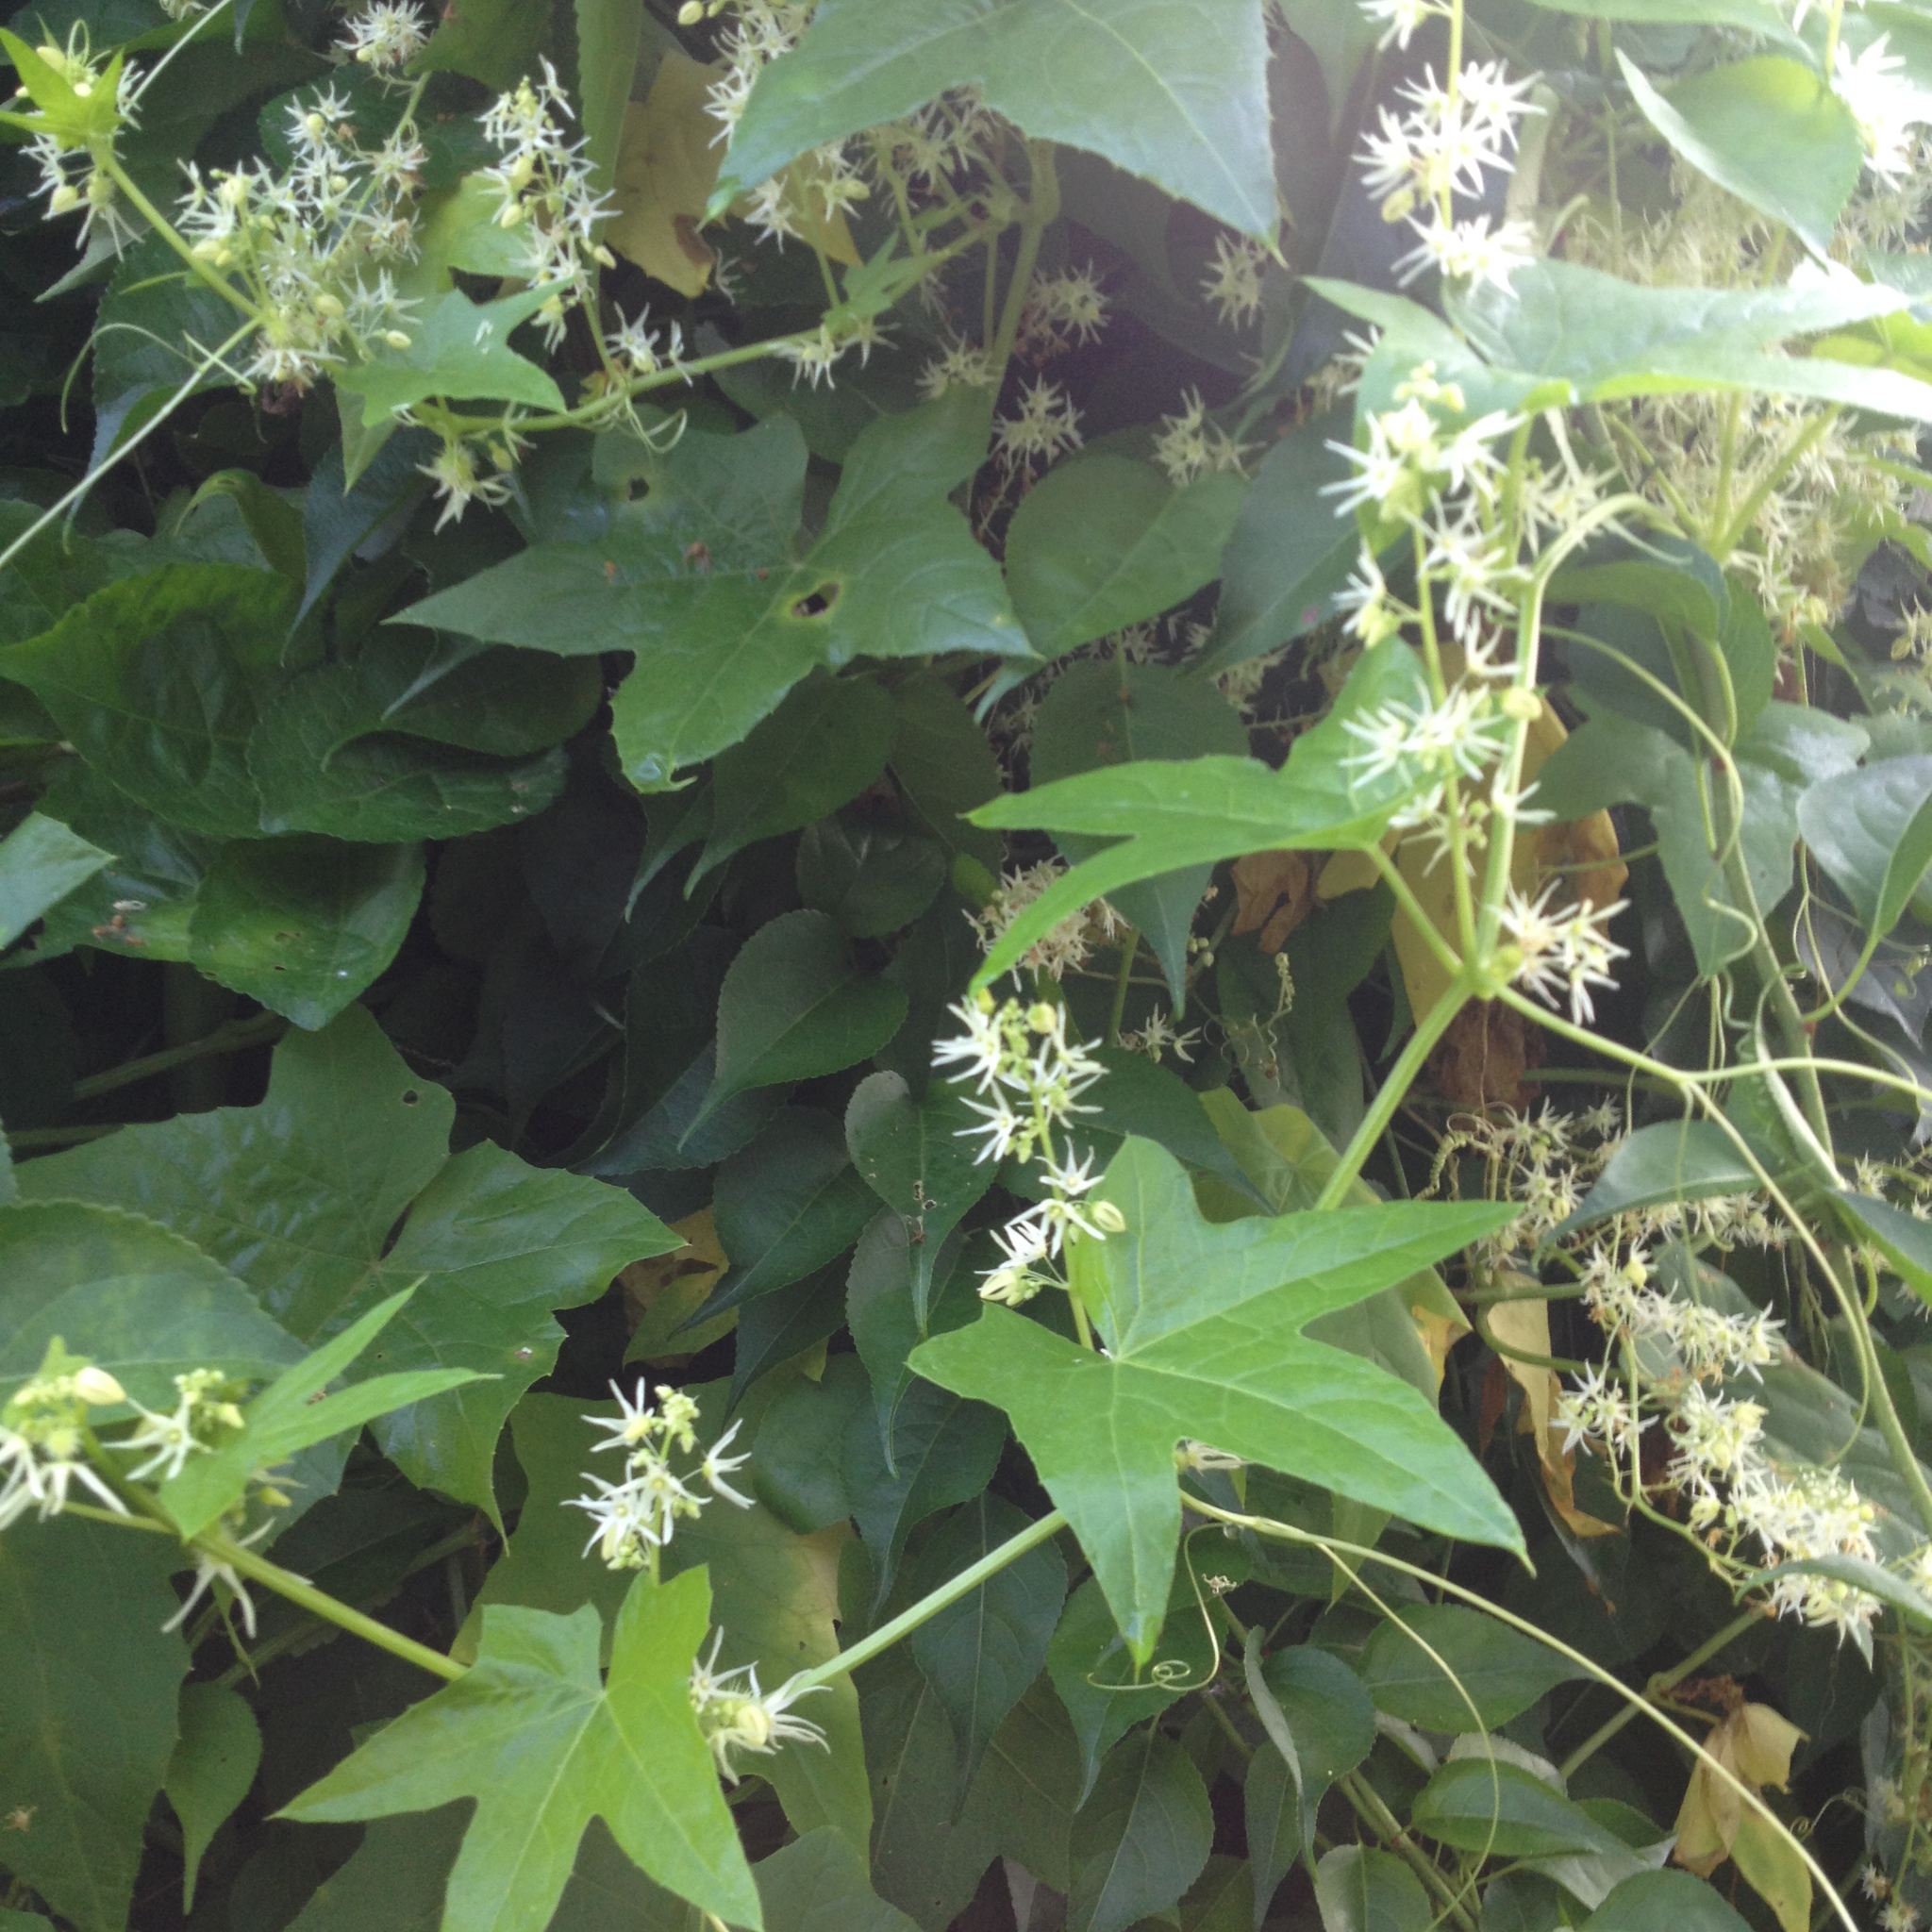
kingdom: Plantae
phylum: Tracheophyta
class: Magnoliopsida
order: Cucurbitales
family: Cucurbitaceae
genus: Echinocystis
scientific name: Echinocystis lobata
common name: Wild cucumber
